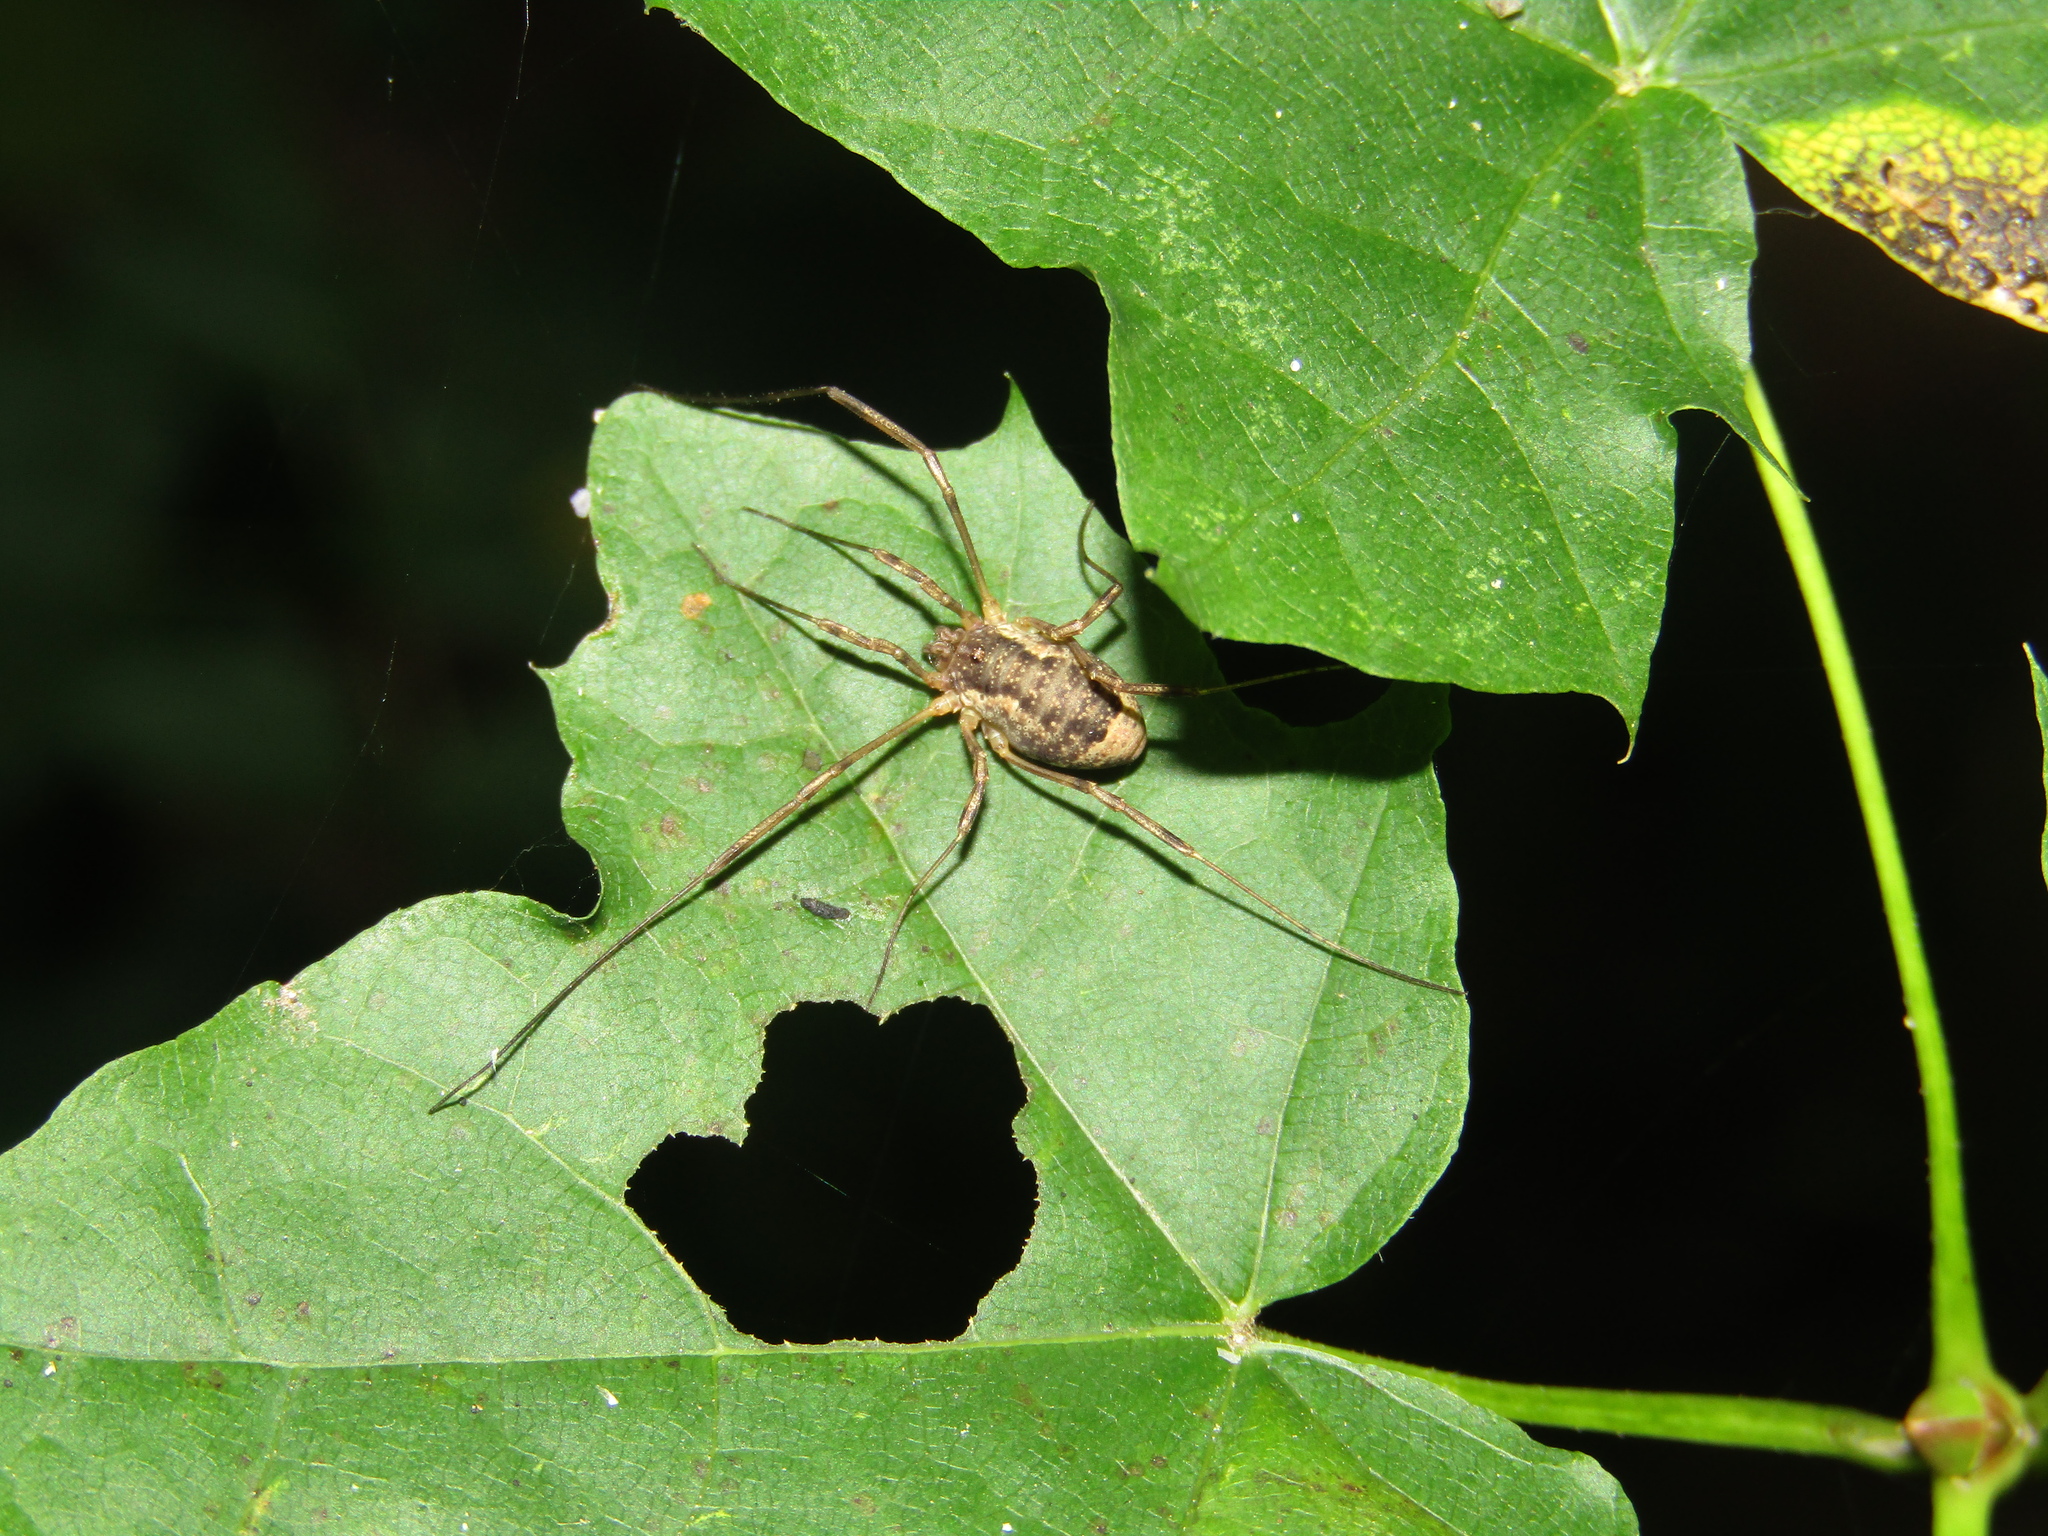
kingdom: Animalia
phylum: Arthropoda
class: Arachnida
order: Opiliones
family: Phalangiidae
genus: Oligolophus
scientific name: Oligolophus tridens
